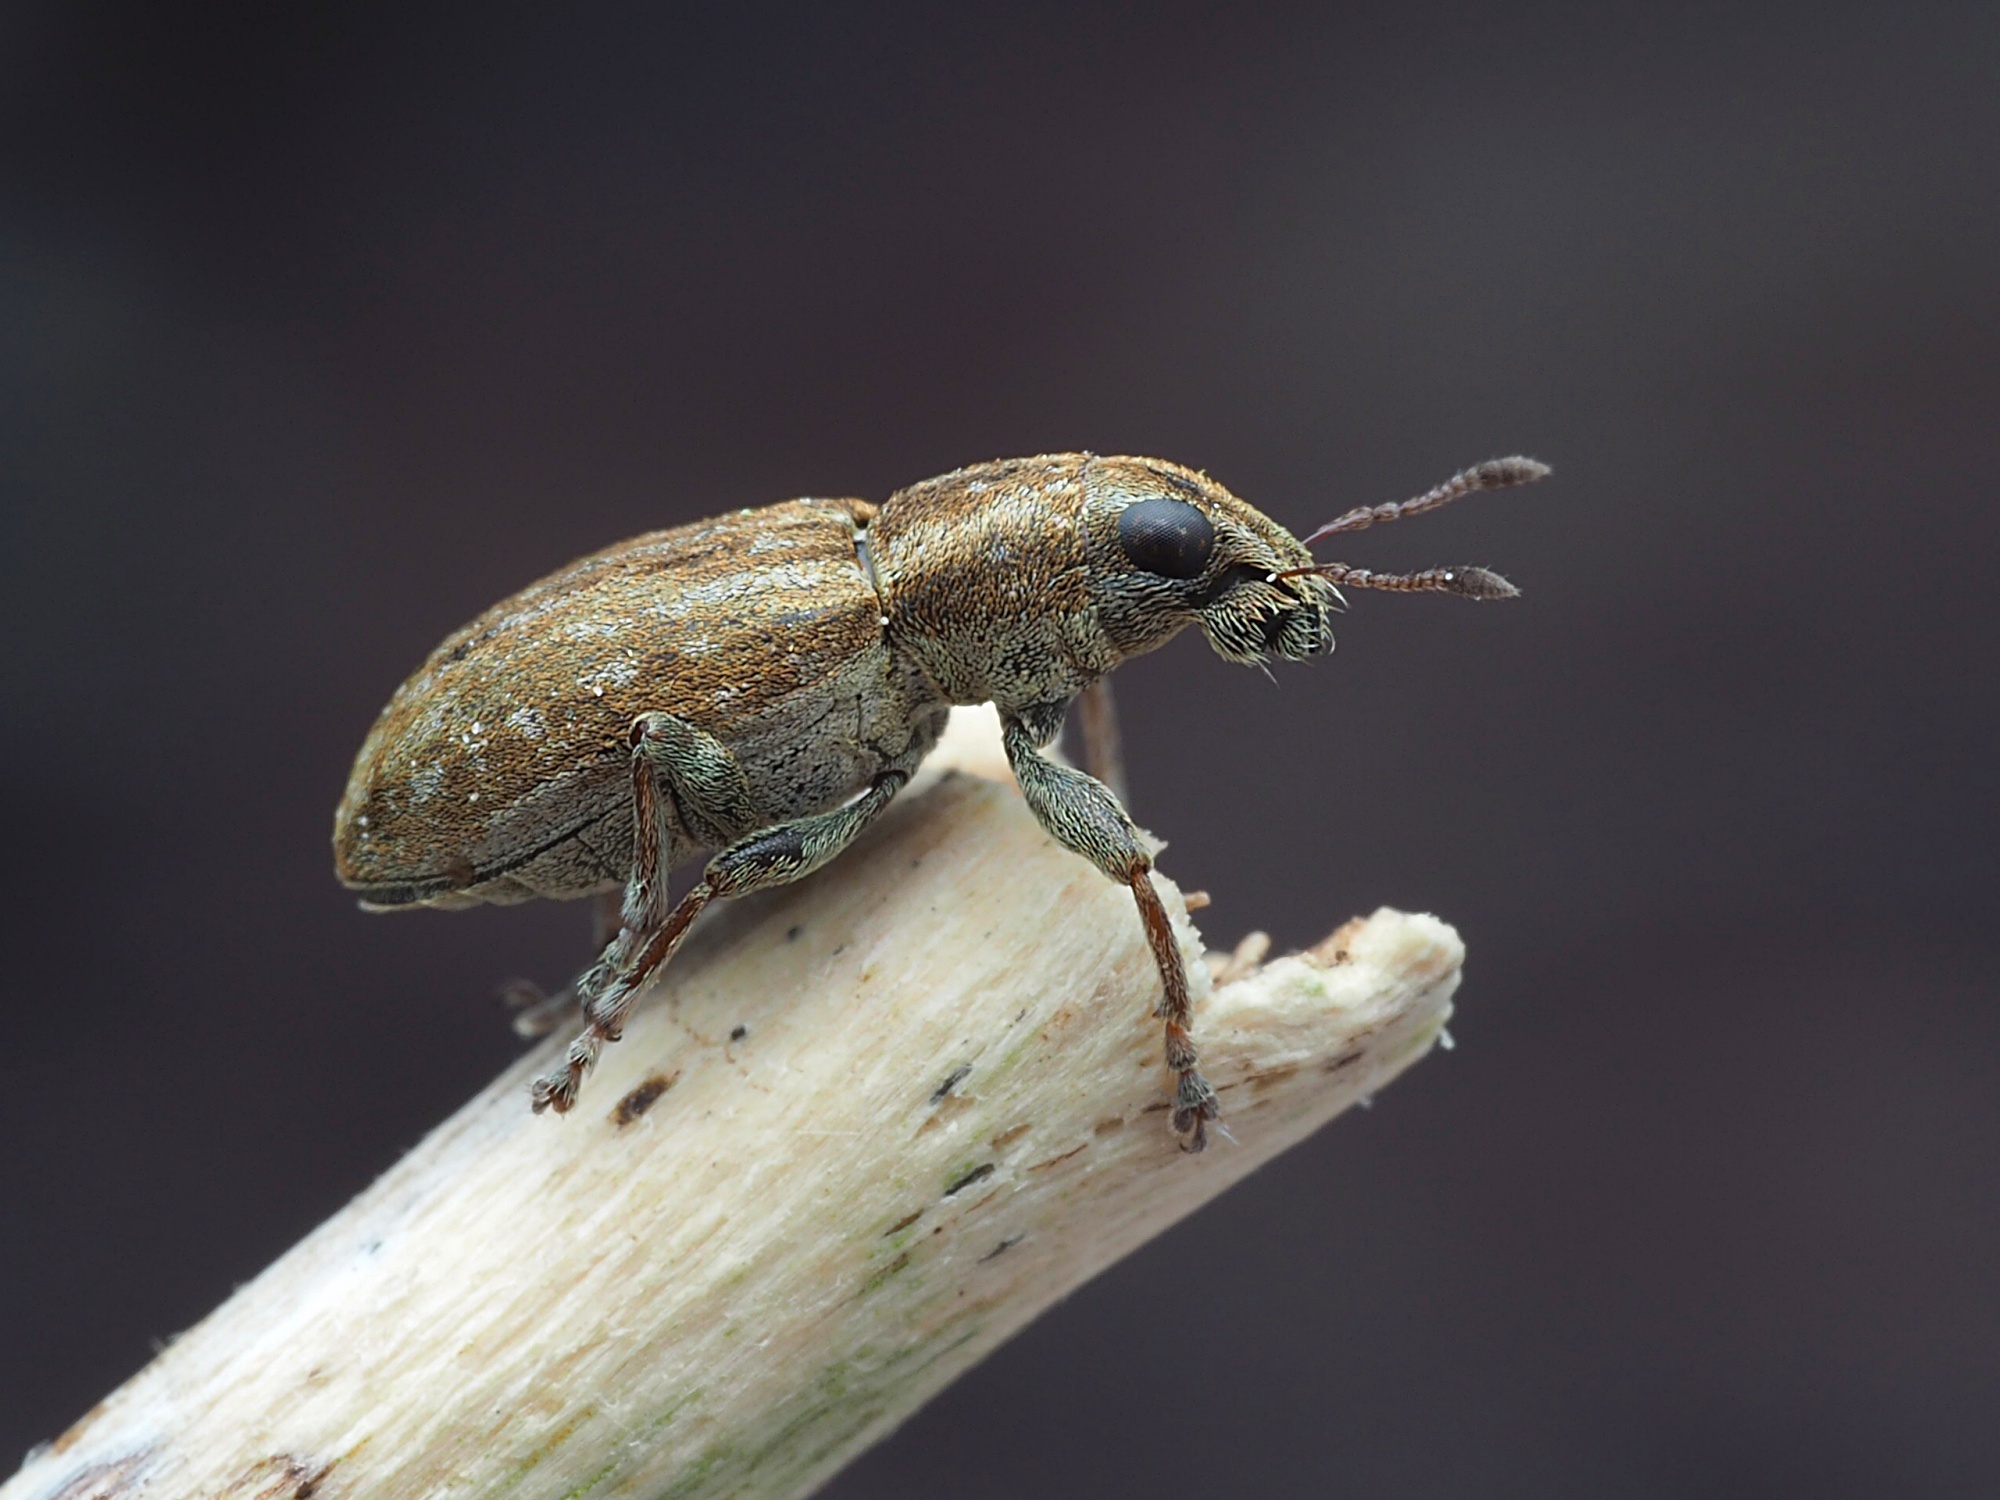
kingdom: Animalia
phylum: Arthropoda
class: Insecta
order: Coleoptera
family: Curculionidae
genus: Sitona
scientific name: Sitona obsoletus
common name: Weevil
